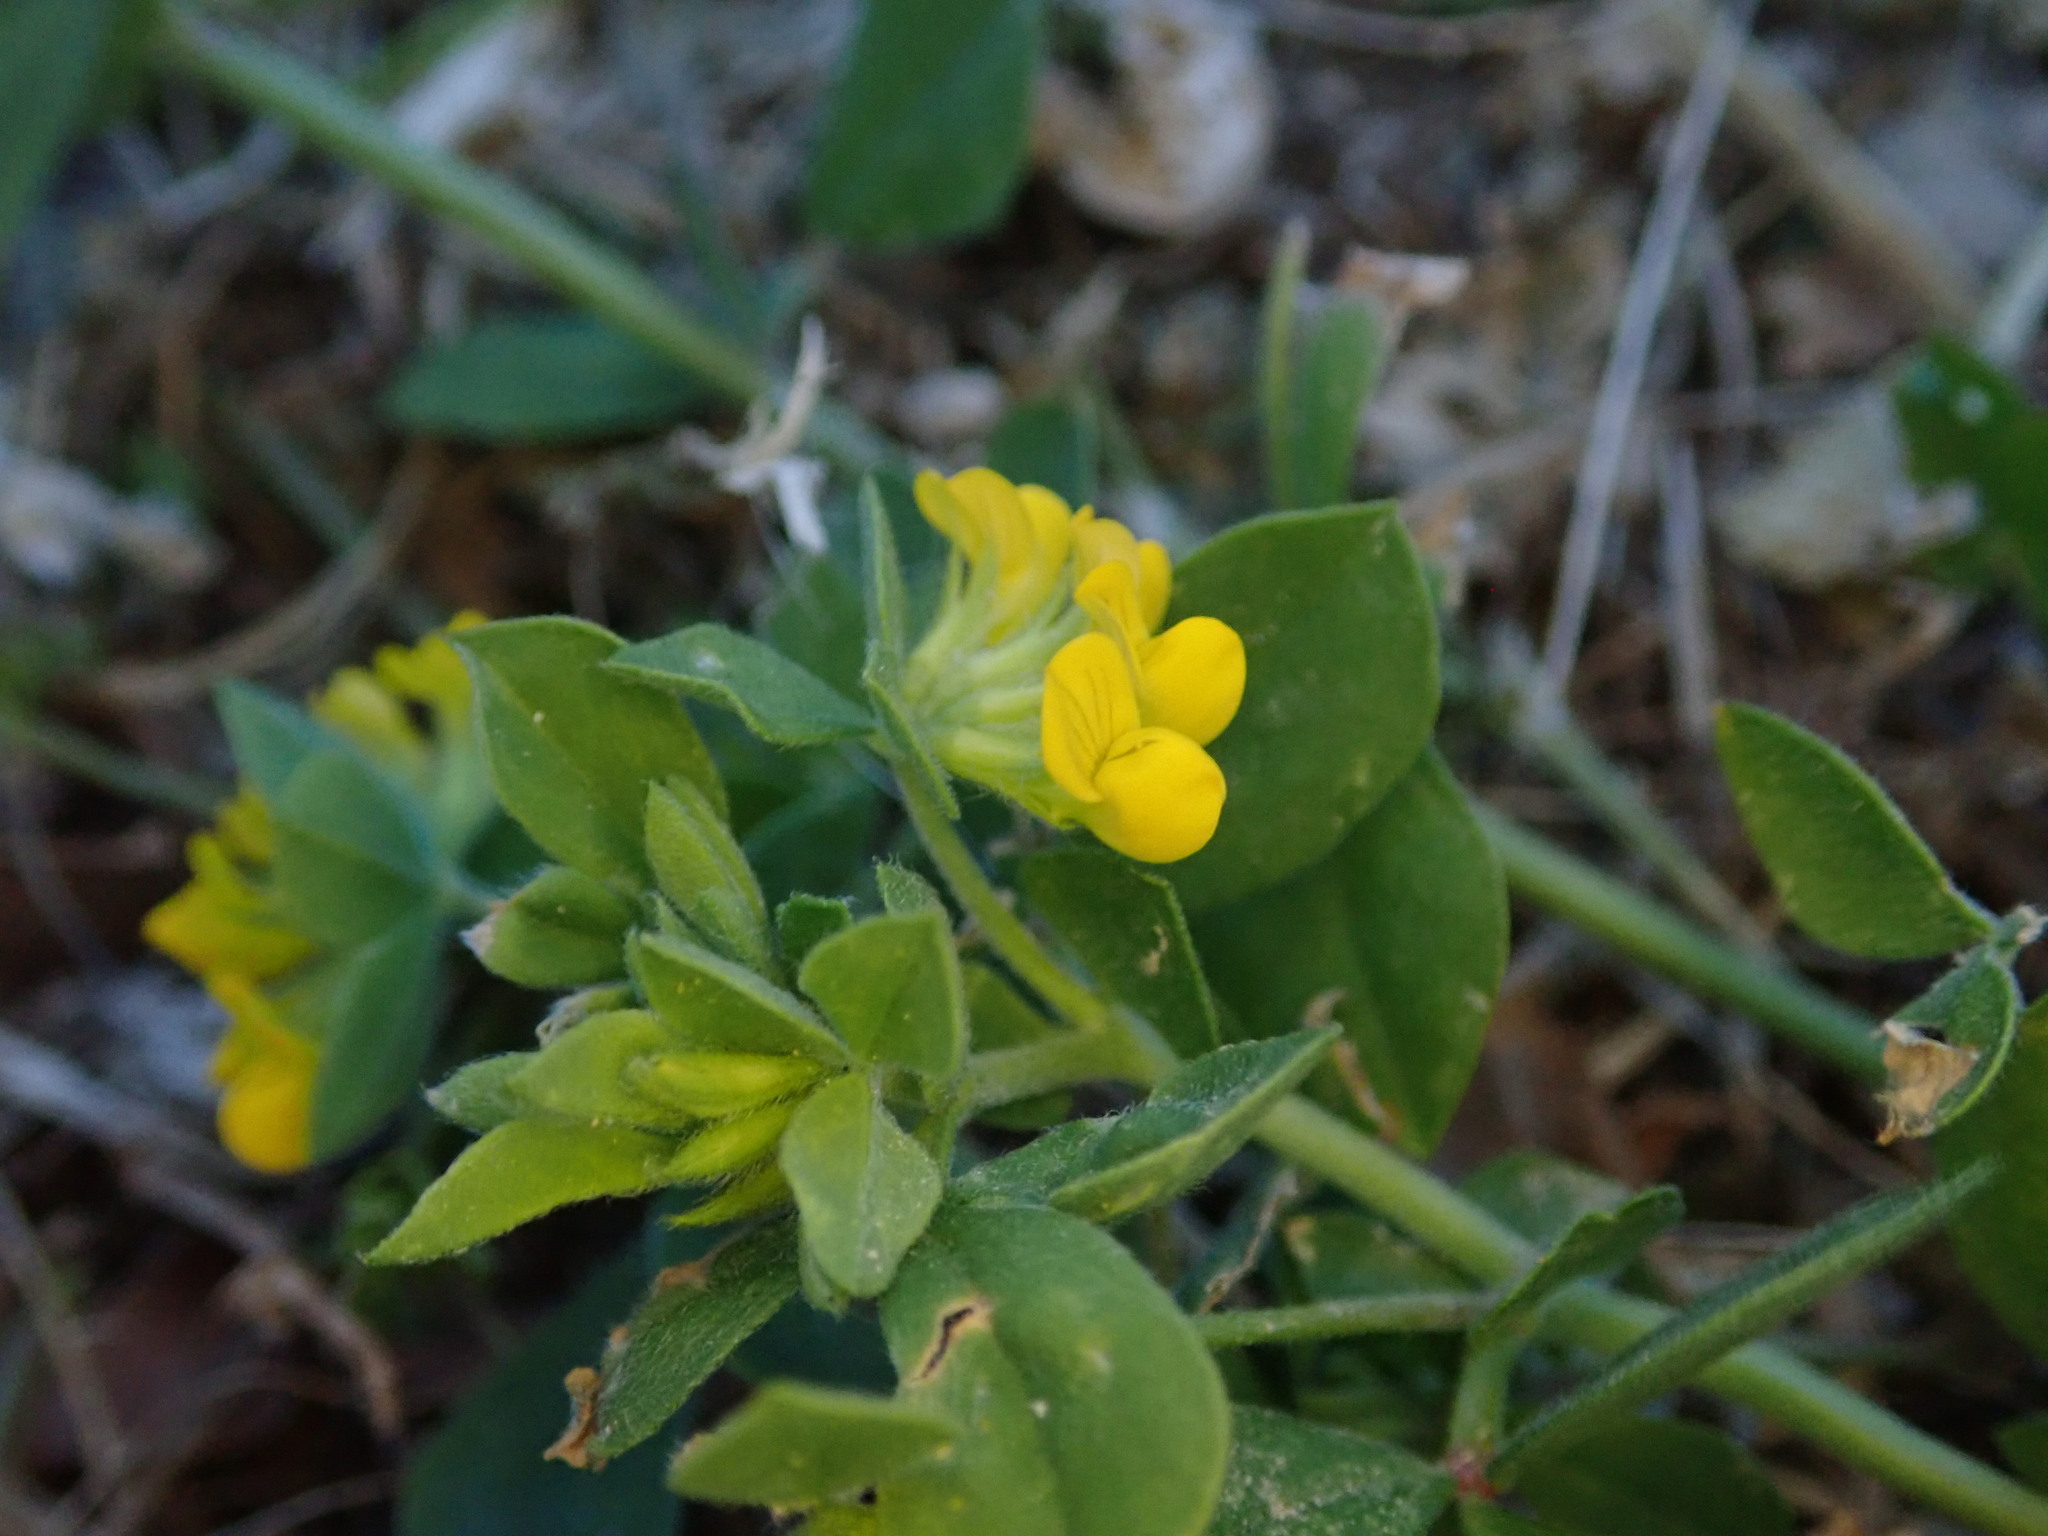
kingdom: Plantae
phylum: Tracheophyta
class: Magnoliopsida
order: Fabales
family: Fabaceae
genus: Lotus
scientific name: Lotus ornithopodioides
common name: Southern bird's-foot trefoil
